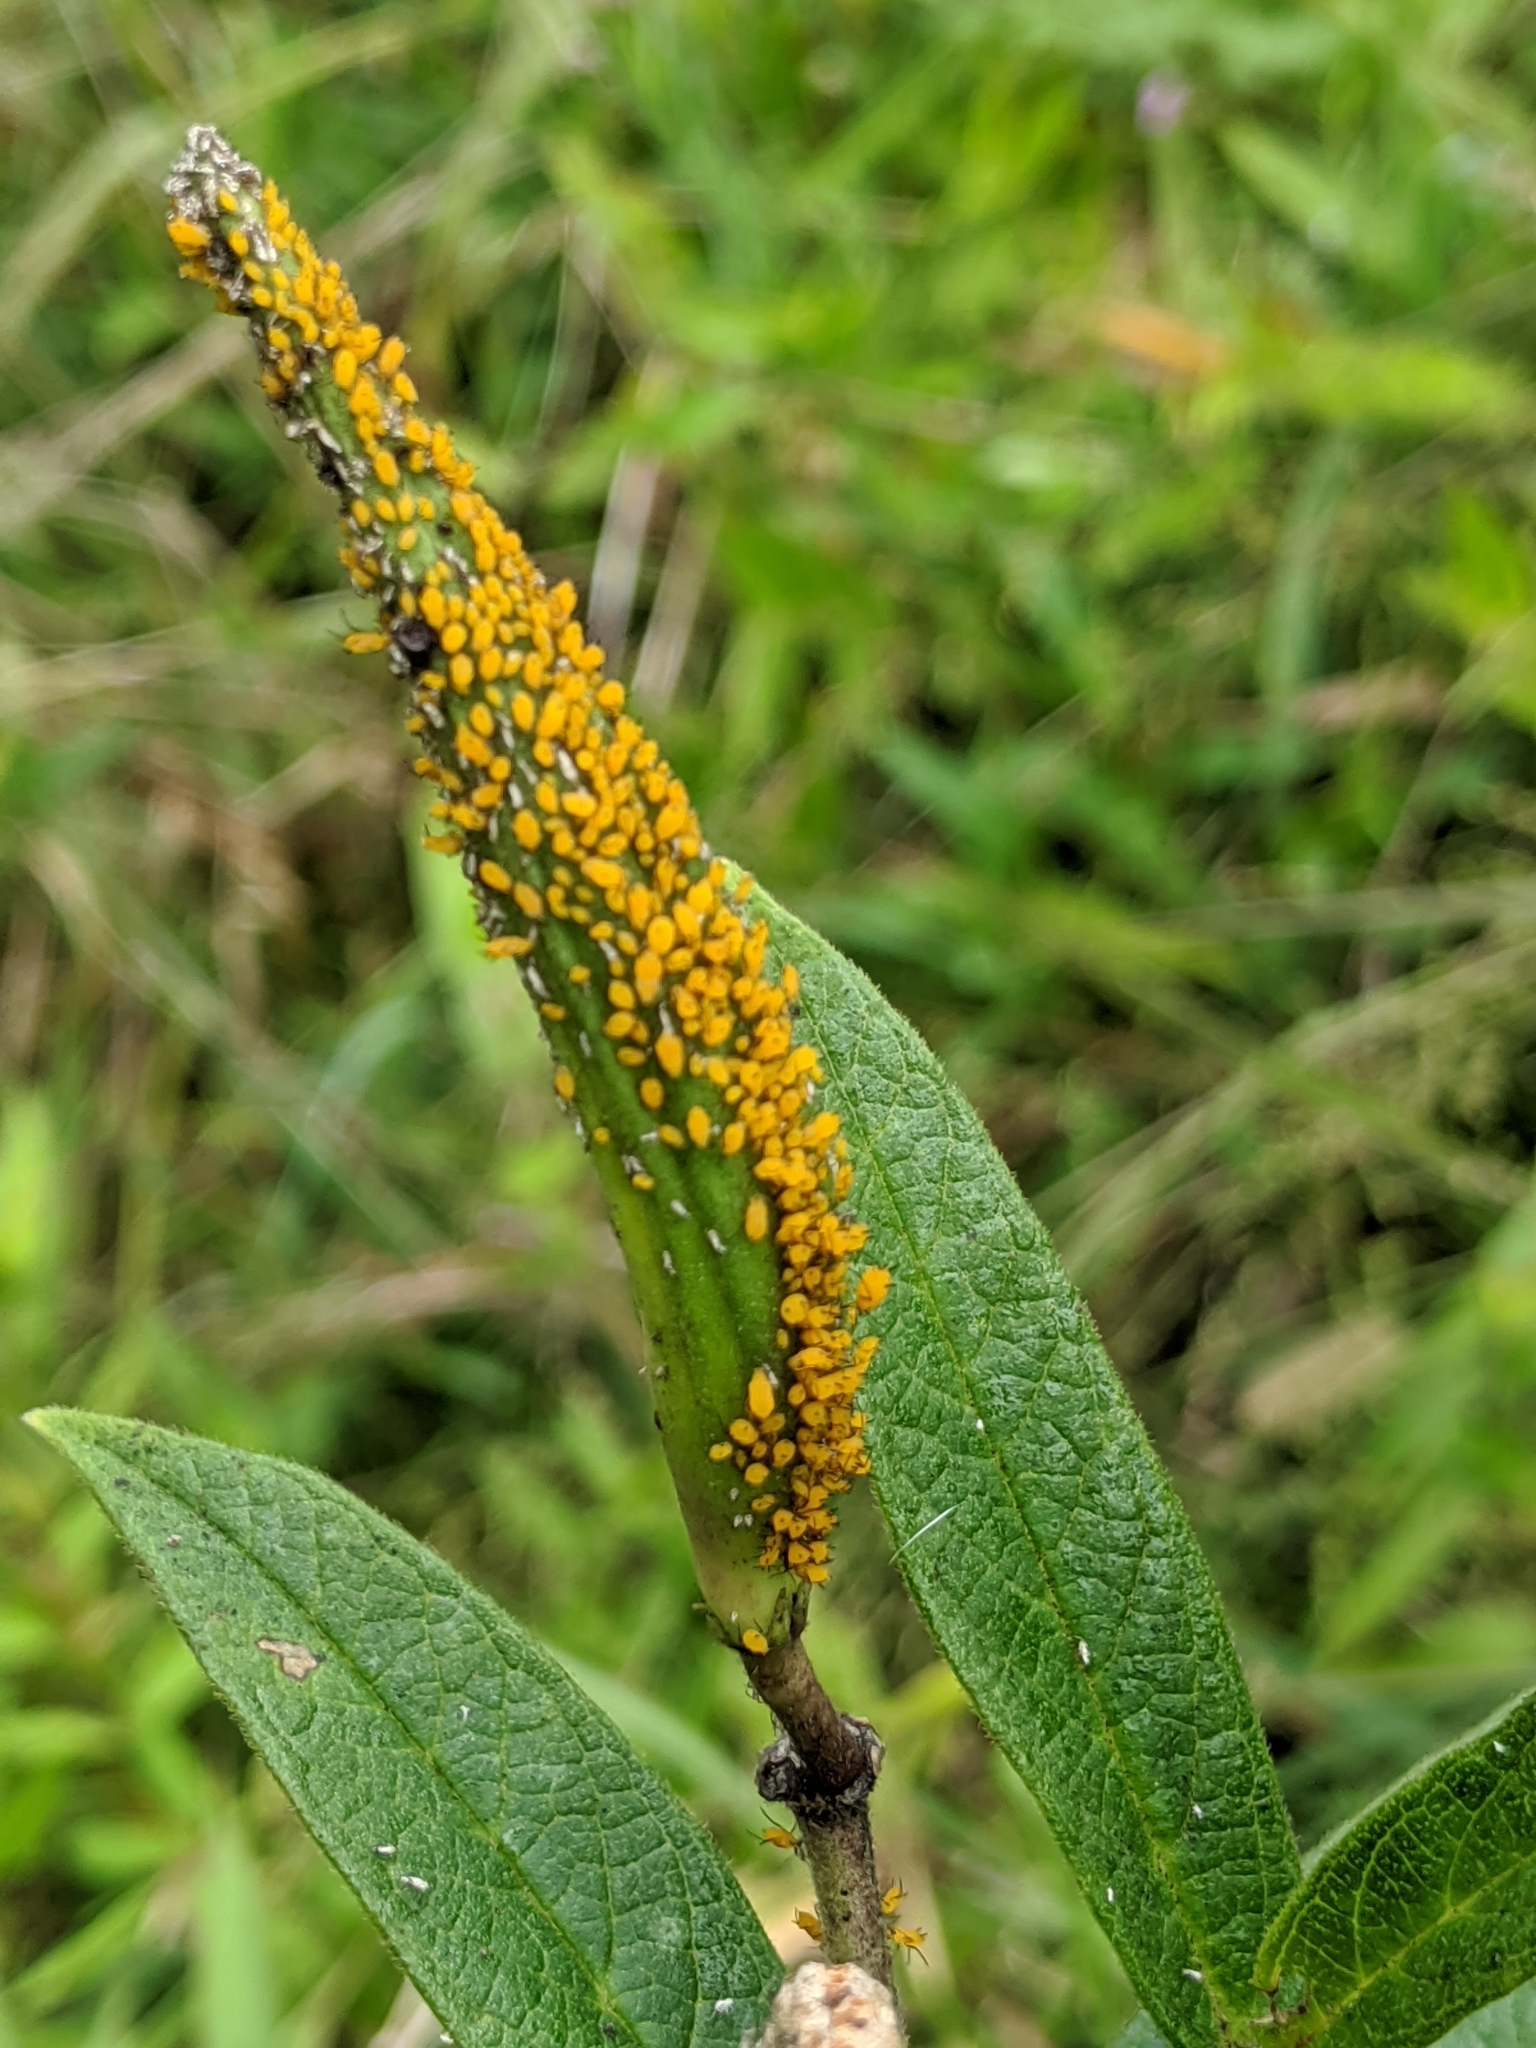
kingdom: Animalia
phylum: Arthropoda
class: Insecta
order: Hemiptera
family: Aphididae
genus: Aphis
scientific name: Aphis nerii
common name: Oleander aphid
